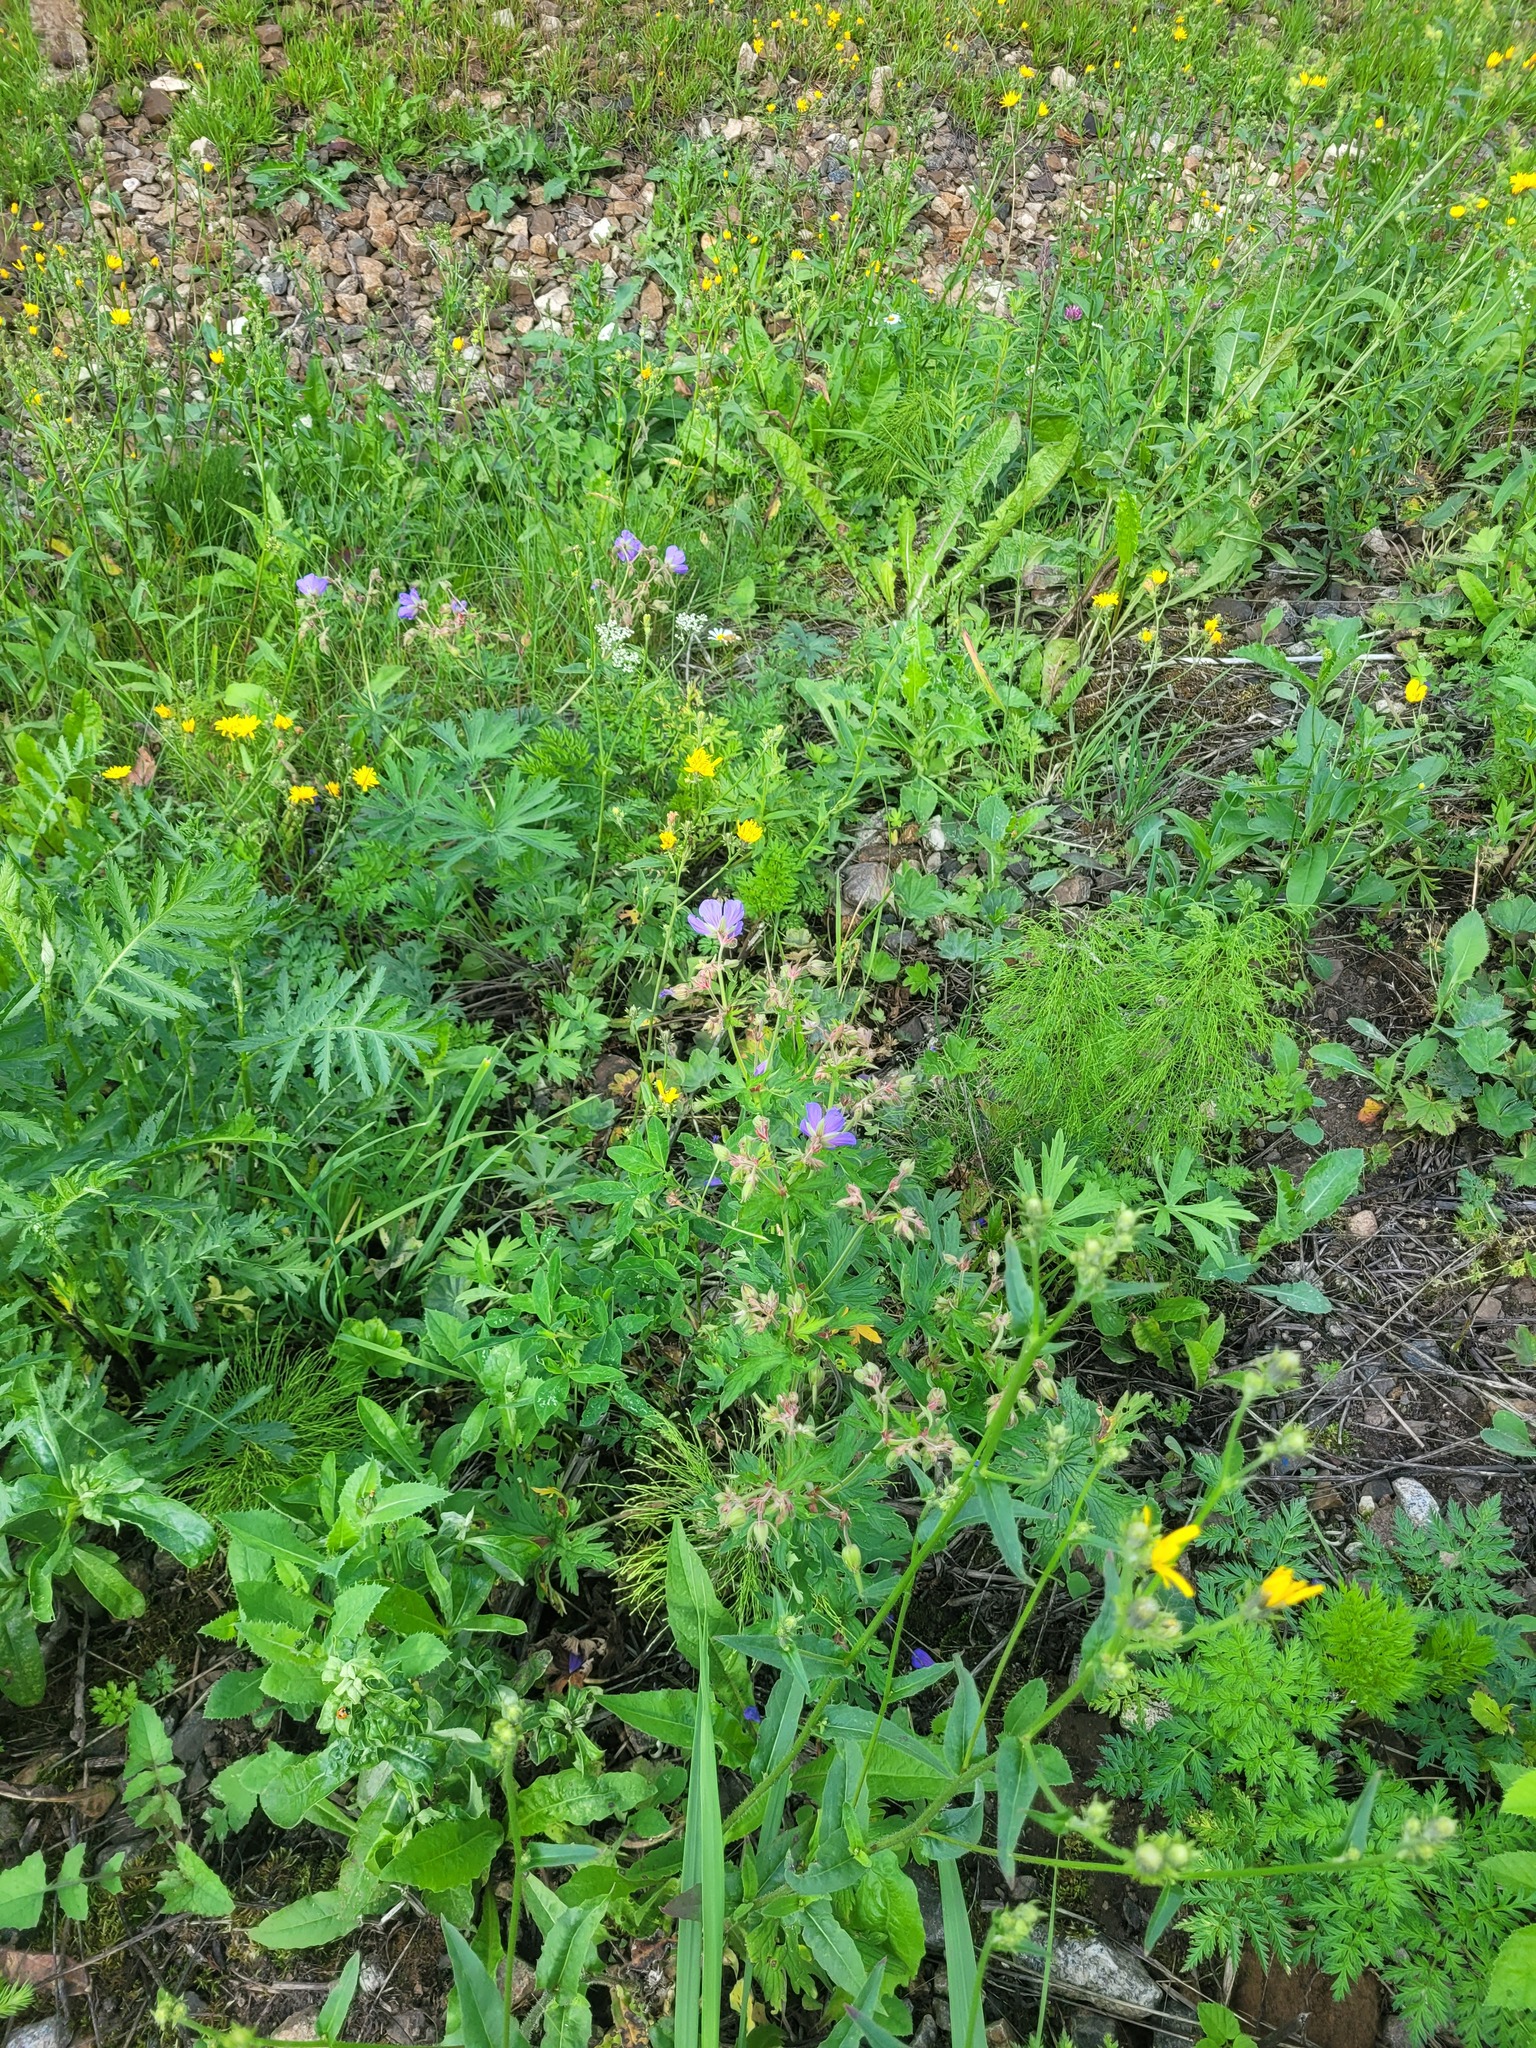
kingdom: Plantae
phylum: Tracheophyta
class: Magnoliopsida
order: Geraniales
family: Geraniaceae
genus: Geranium
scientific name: Geranium pratense
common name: Meadow crane's-bill
